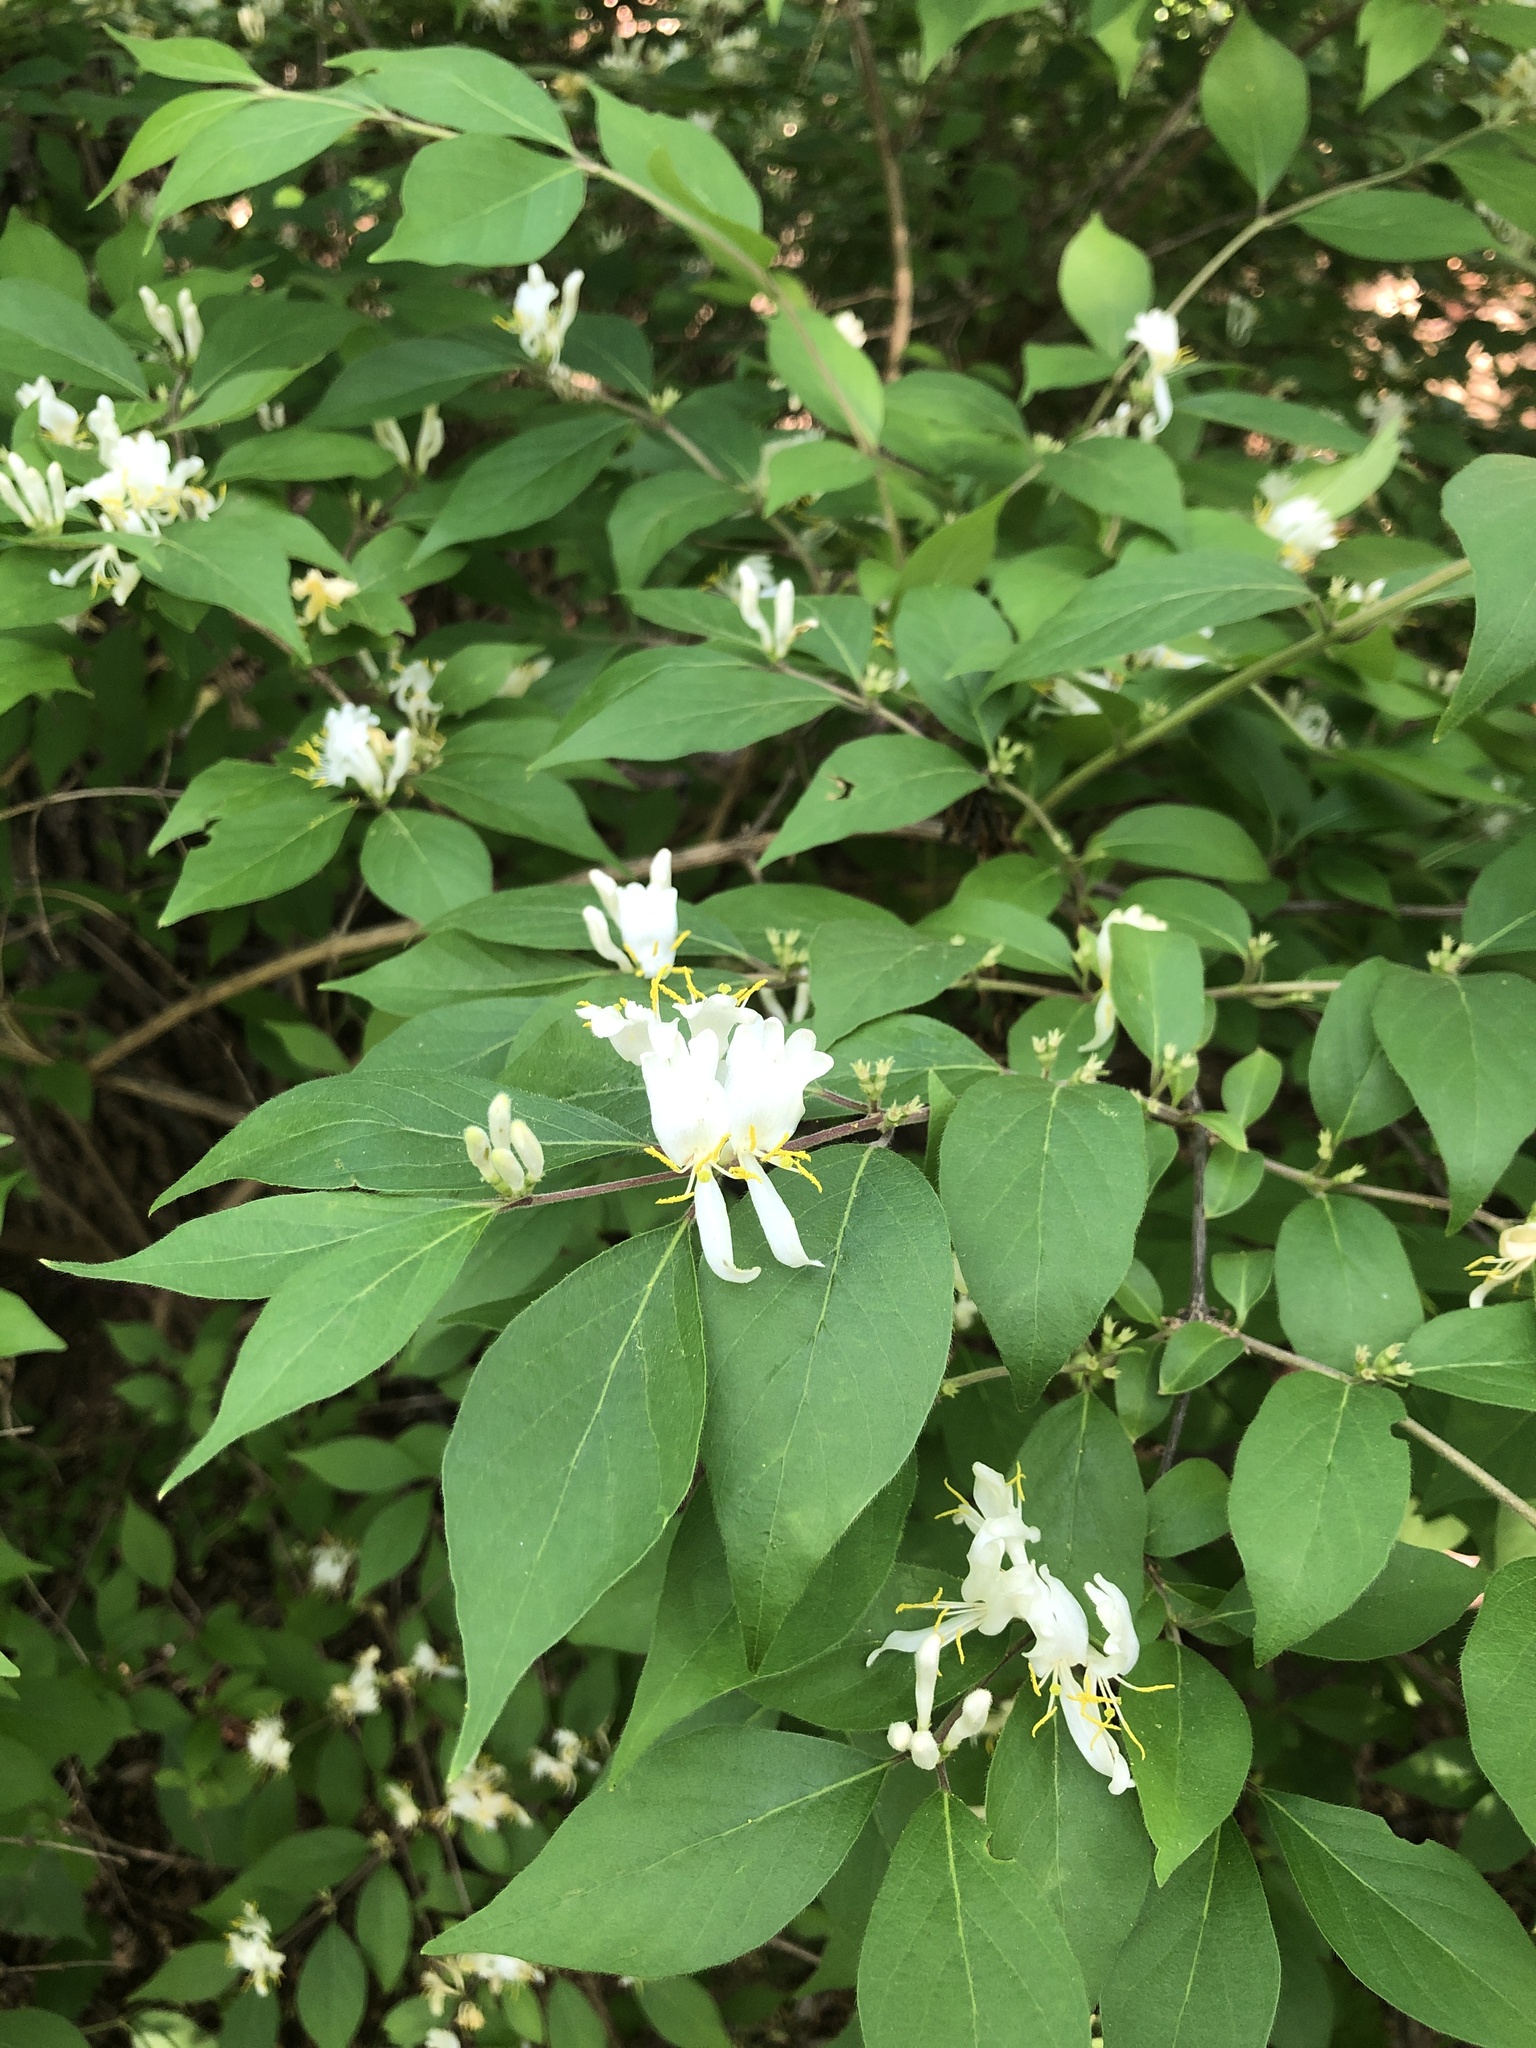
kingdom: Plantae
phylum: Tracheophyta
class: Magnoliopsida
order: Dipsacales
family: Caprifoliaceae
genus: Lonicera
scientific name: Lonicera maackii
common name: Amur honeysuckle
